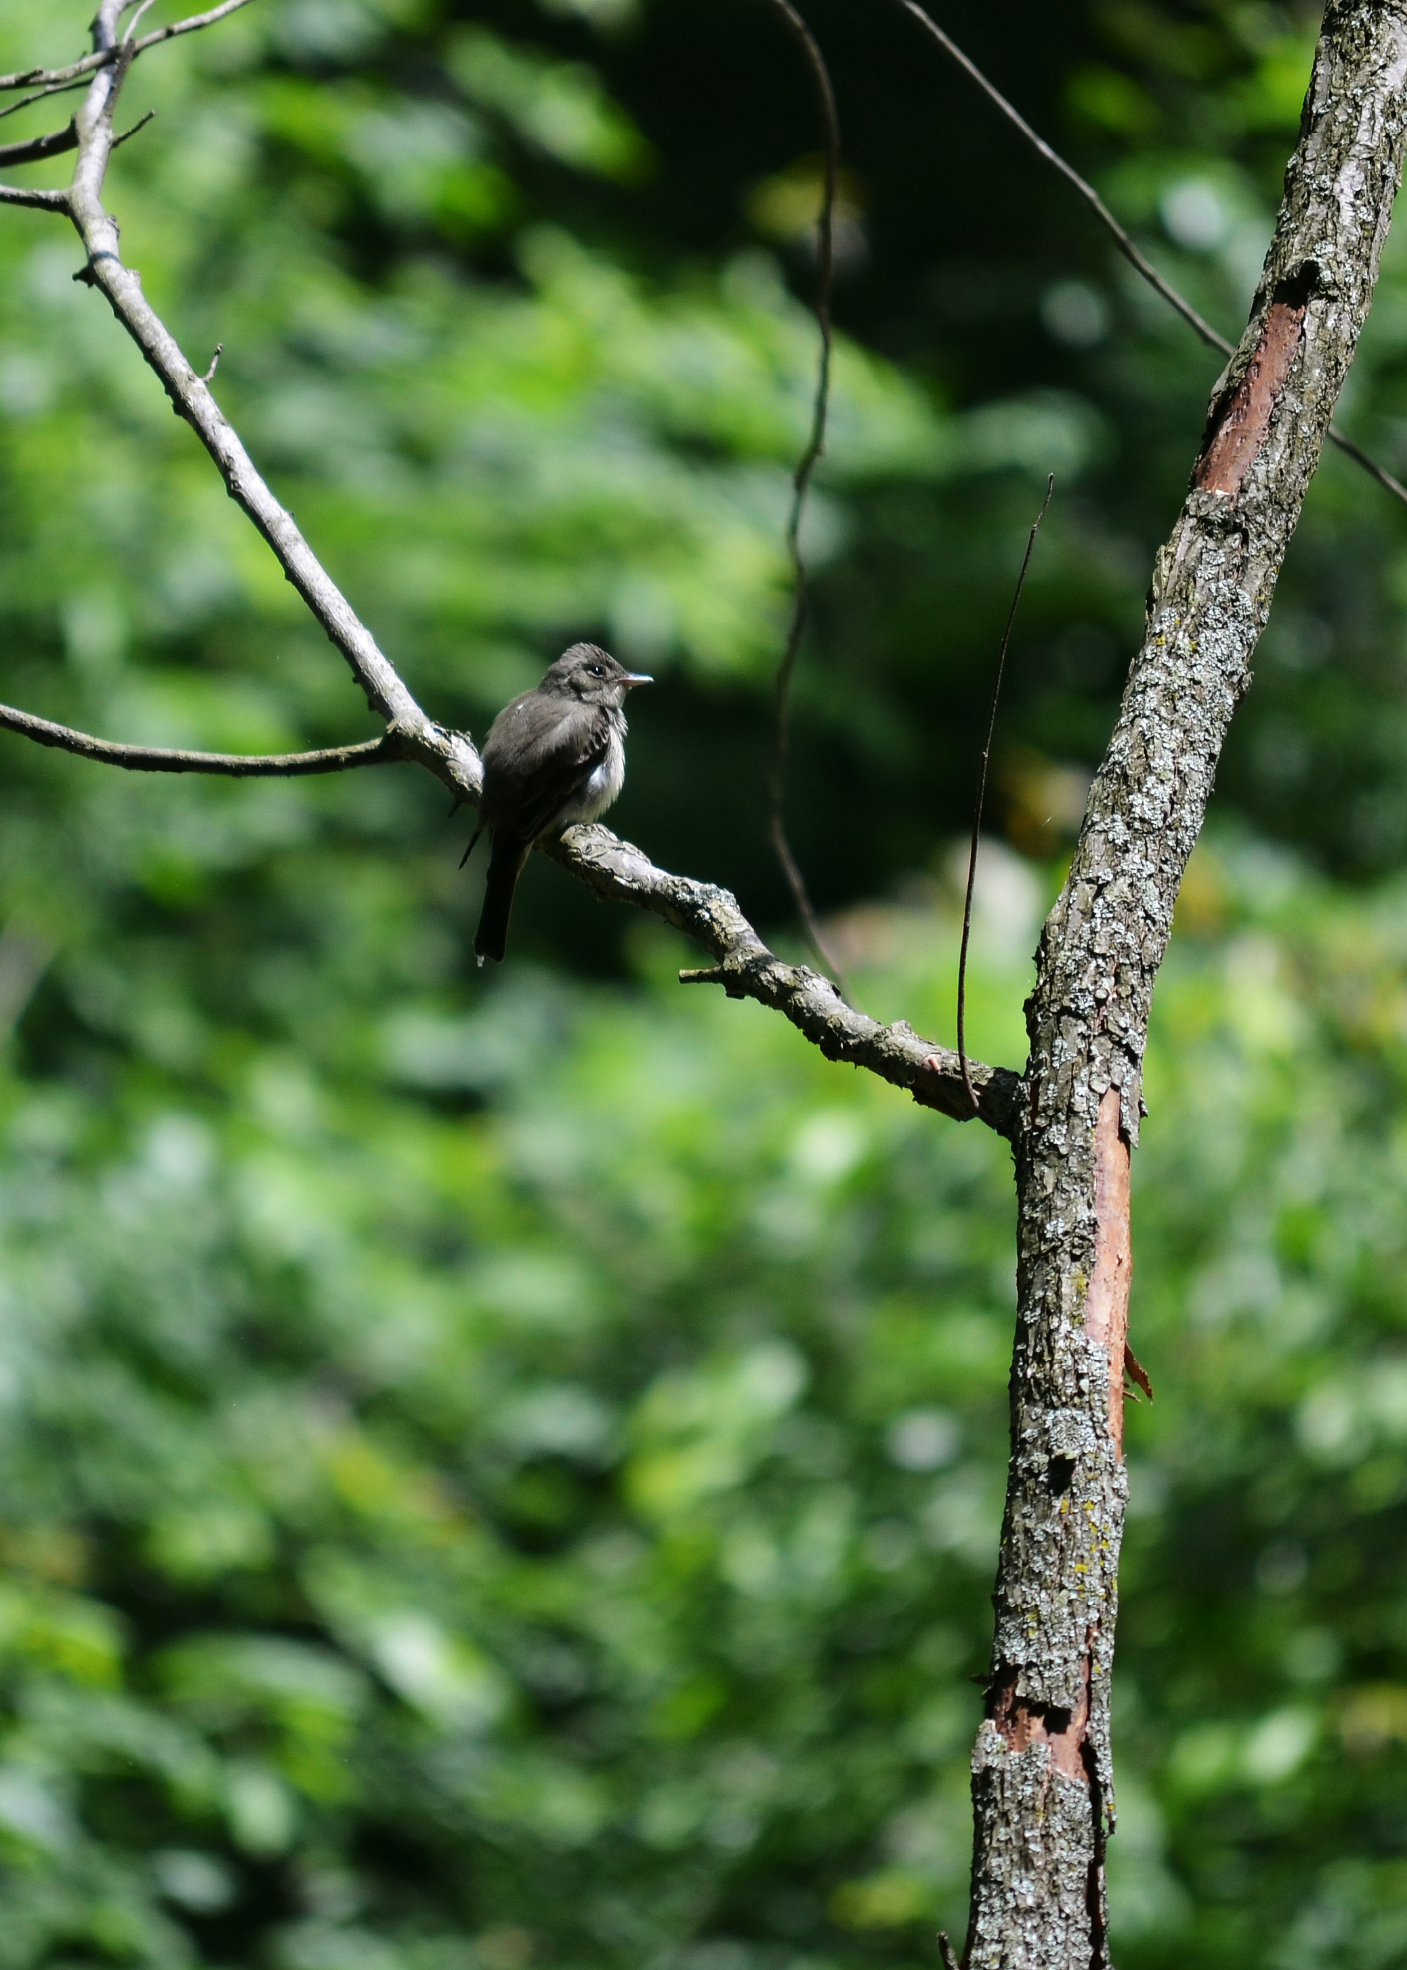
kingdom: Animalia
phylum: Chordata
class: Aves
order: Passeriformes
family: Tyrannidae
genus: Sayornis
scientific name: Sayornis phoebe
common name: Eastern phoebe
